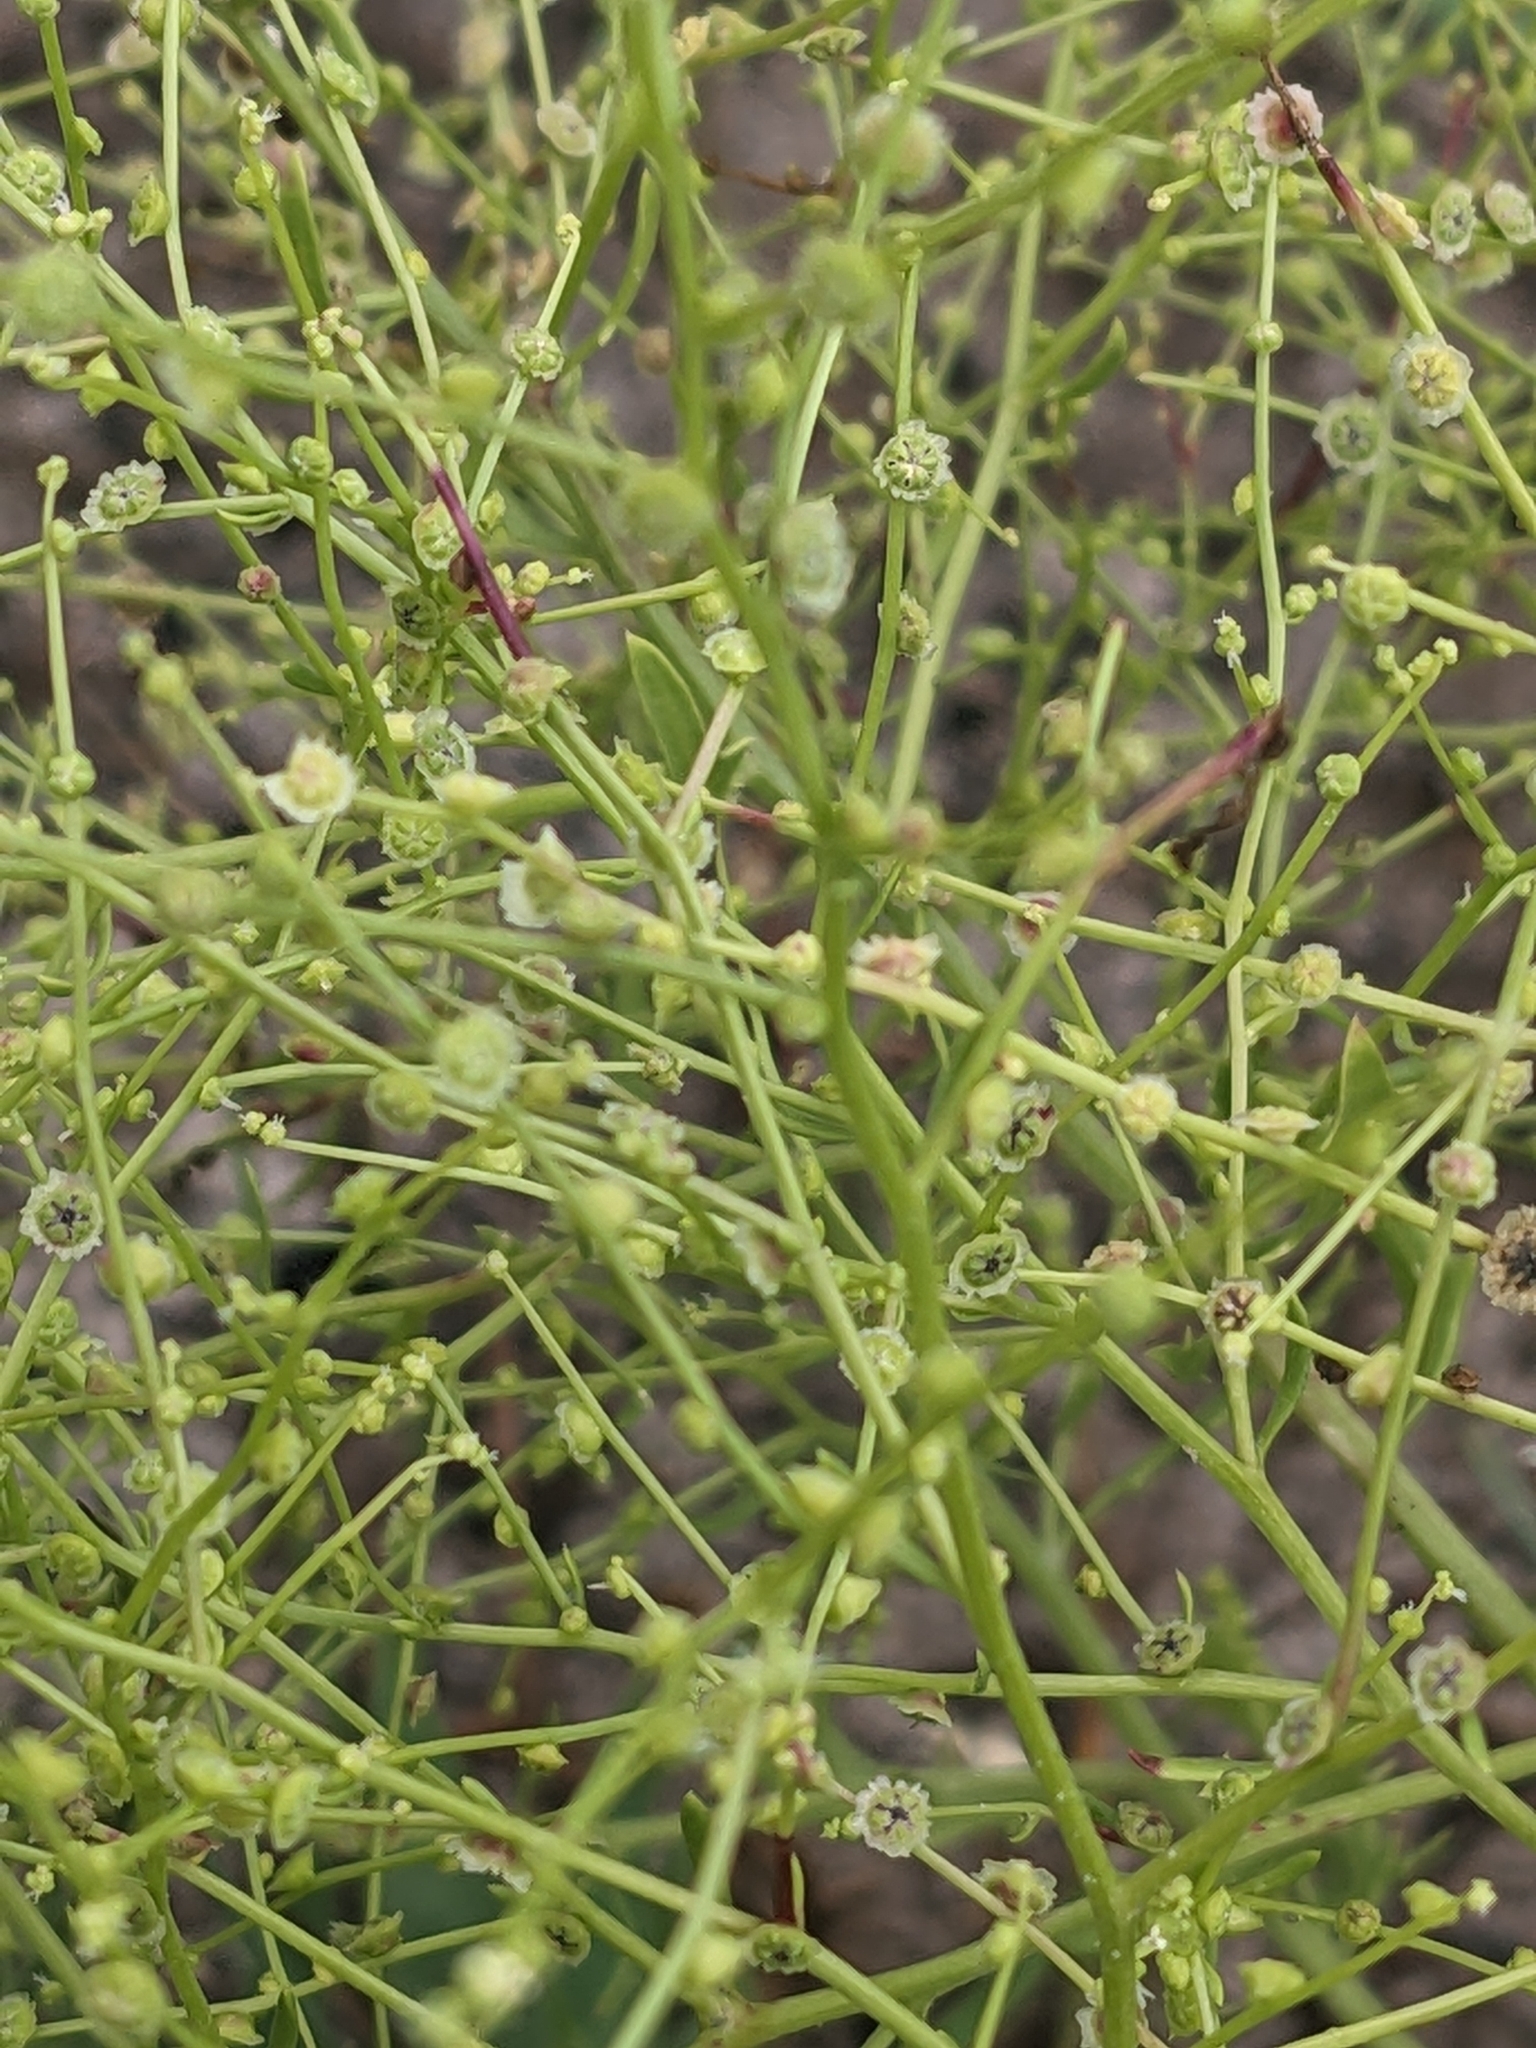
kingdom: Plantae
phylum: Tracheophyta
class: Magnoliopsida
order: Caryophyllales
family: Amaranthaceae
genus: Dysphania
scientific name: Dysphania atriplicifolia
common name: Plains tumbleweed
